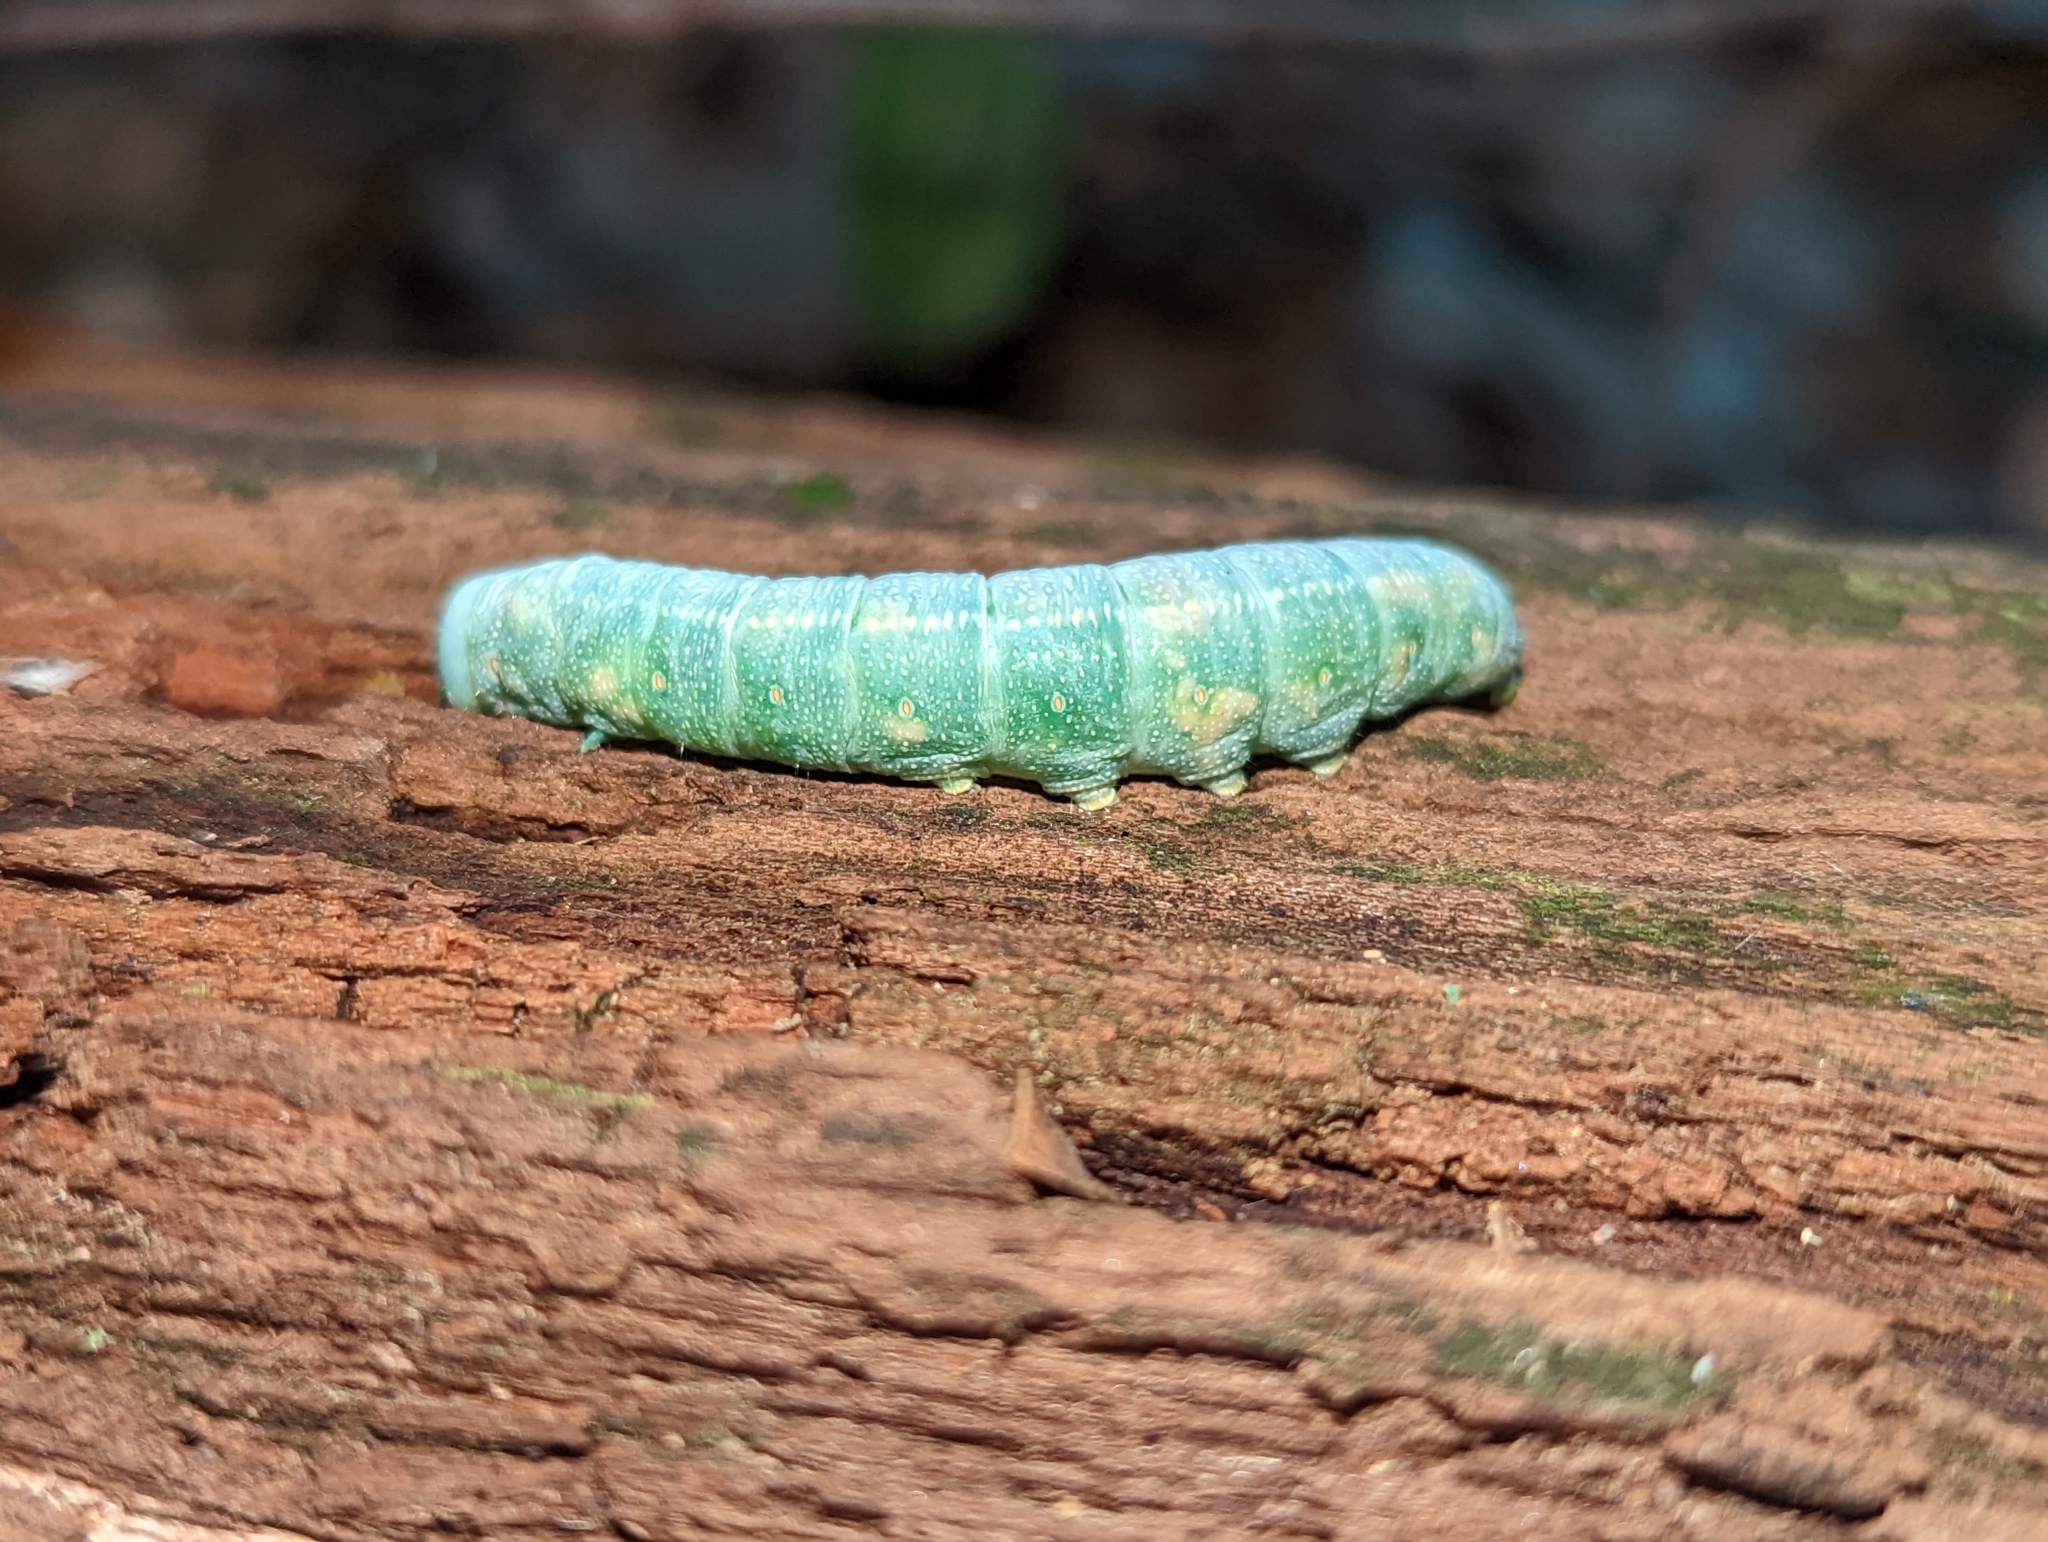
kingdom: Animalia
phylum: Arthropoda
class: Insecta
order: Lepidoptera
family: Notodontidae
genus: Nadata
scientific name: Nadata gibbosa
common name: White-dotted prominent
